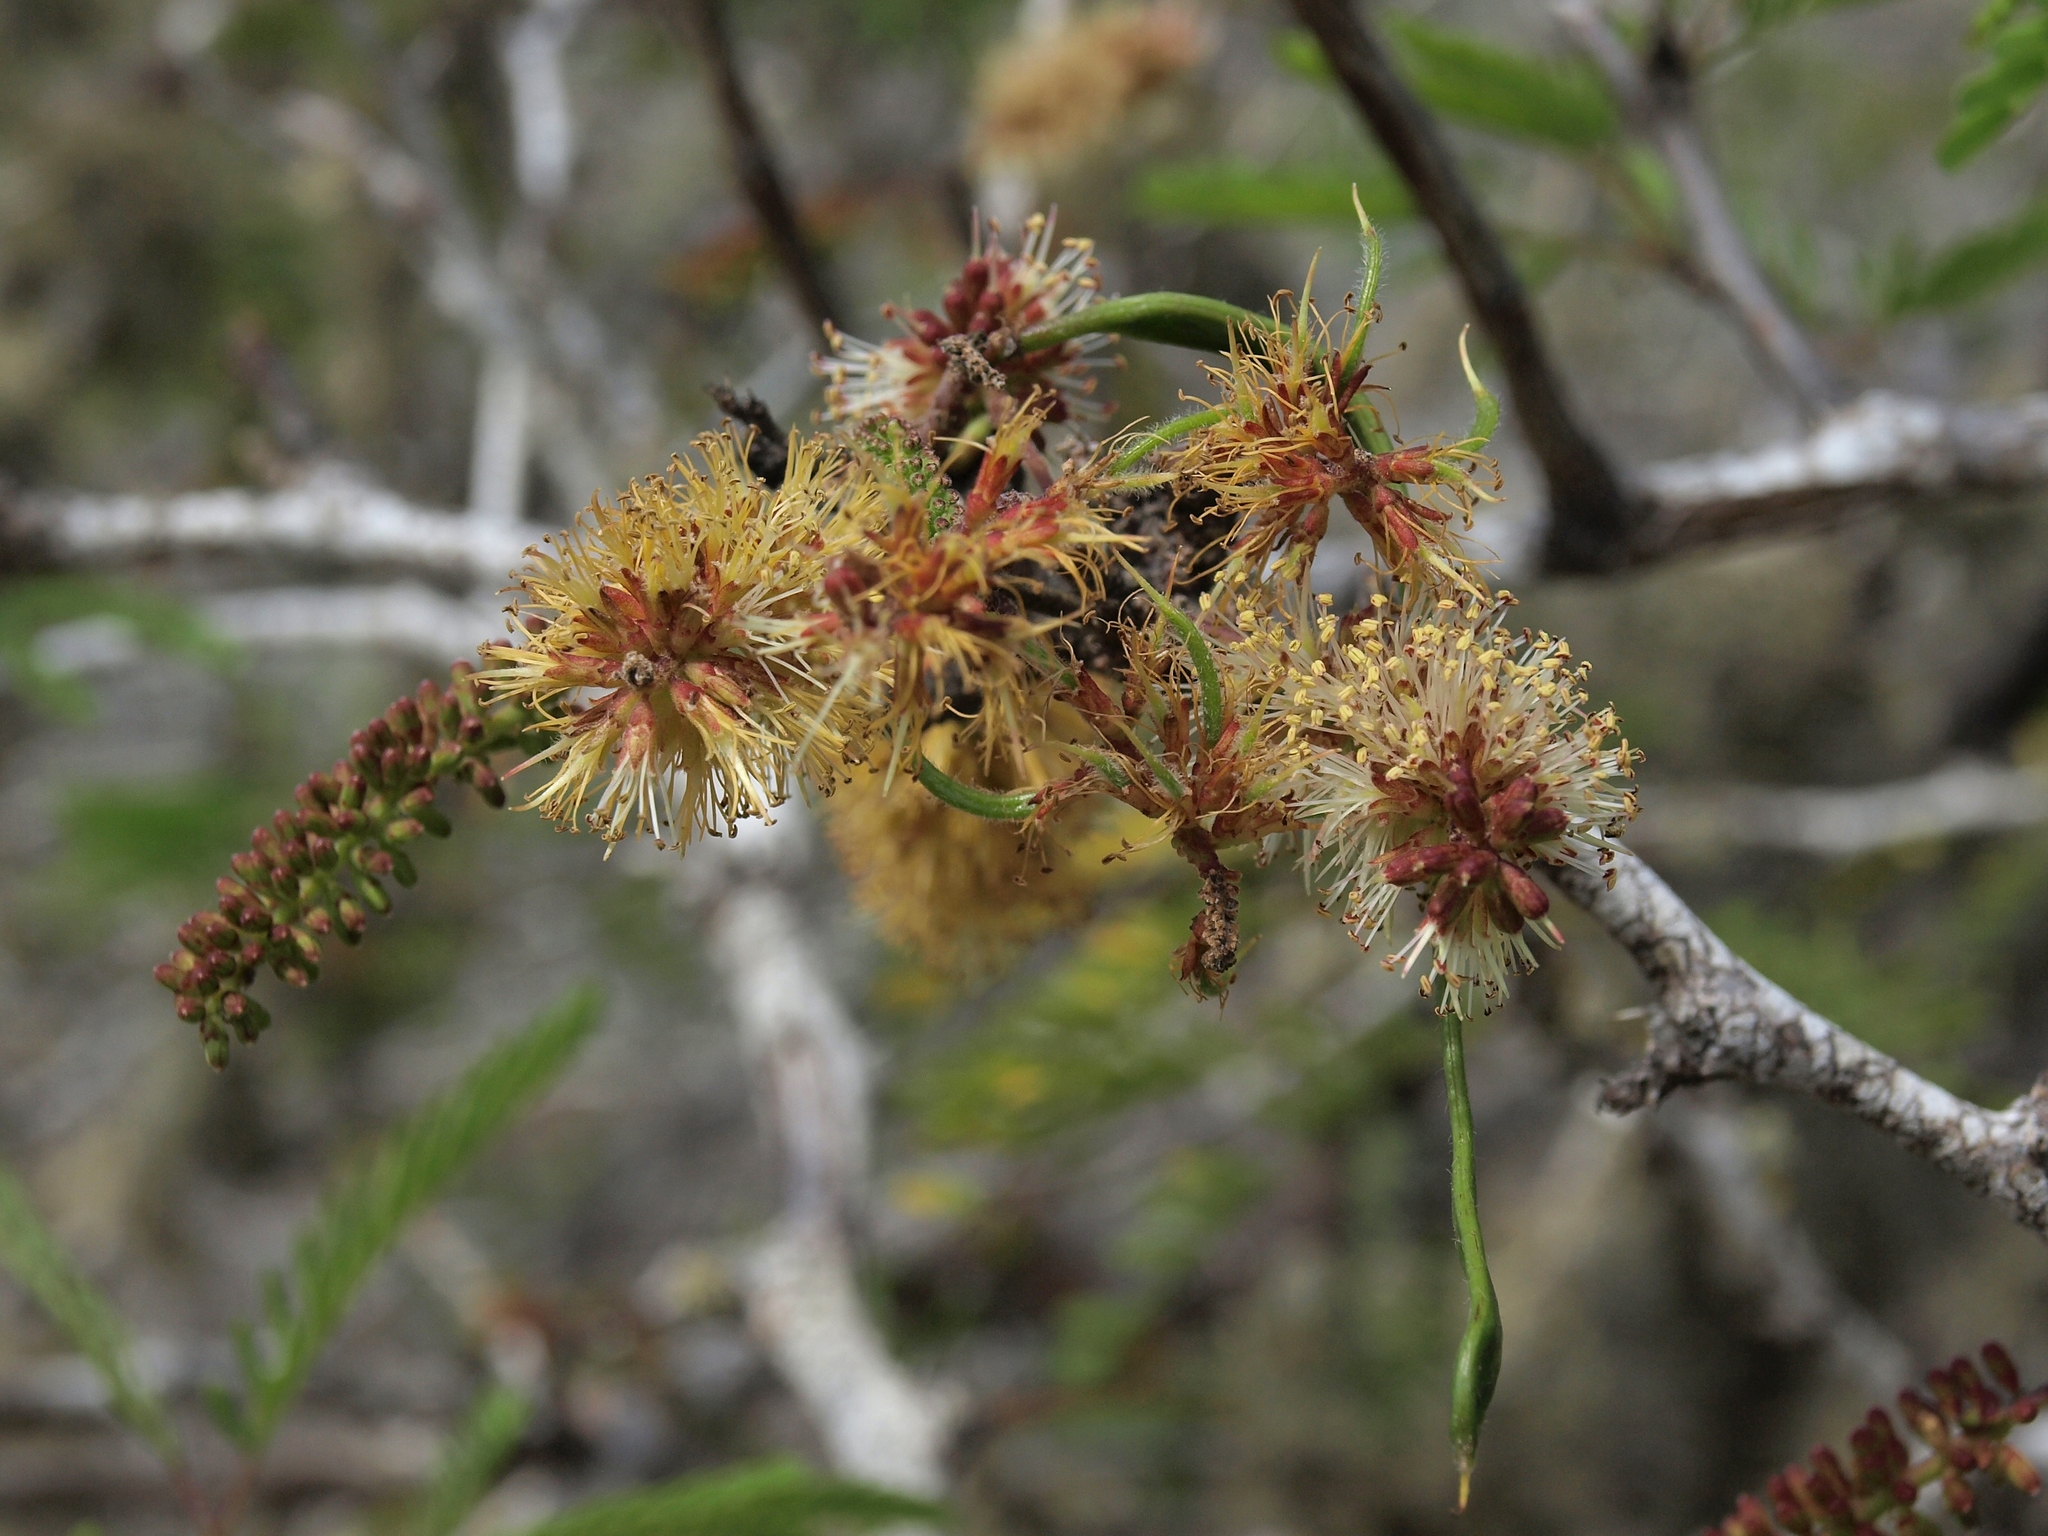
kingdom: Plantae
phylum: Tracheophyta
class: Magnoliopsida
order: Fabales
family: Fabaceae
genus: Prosopis
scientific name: Prosopis juliflora
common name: Mesquite
